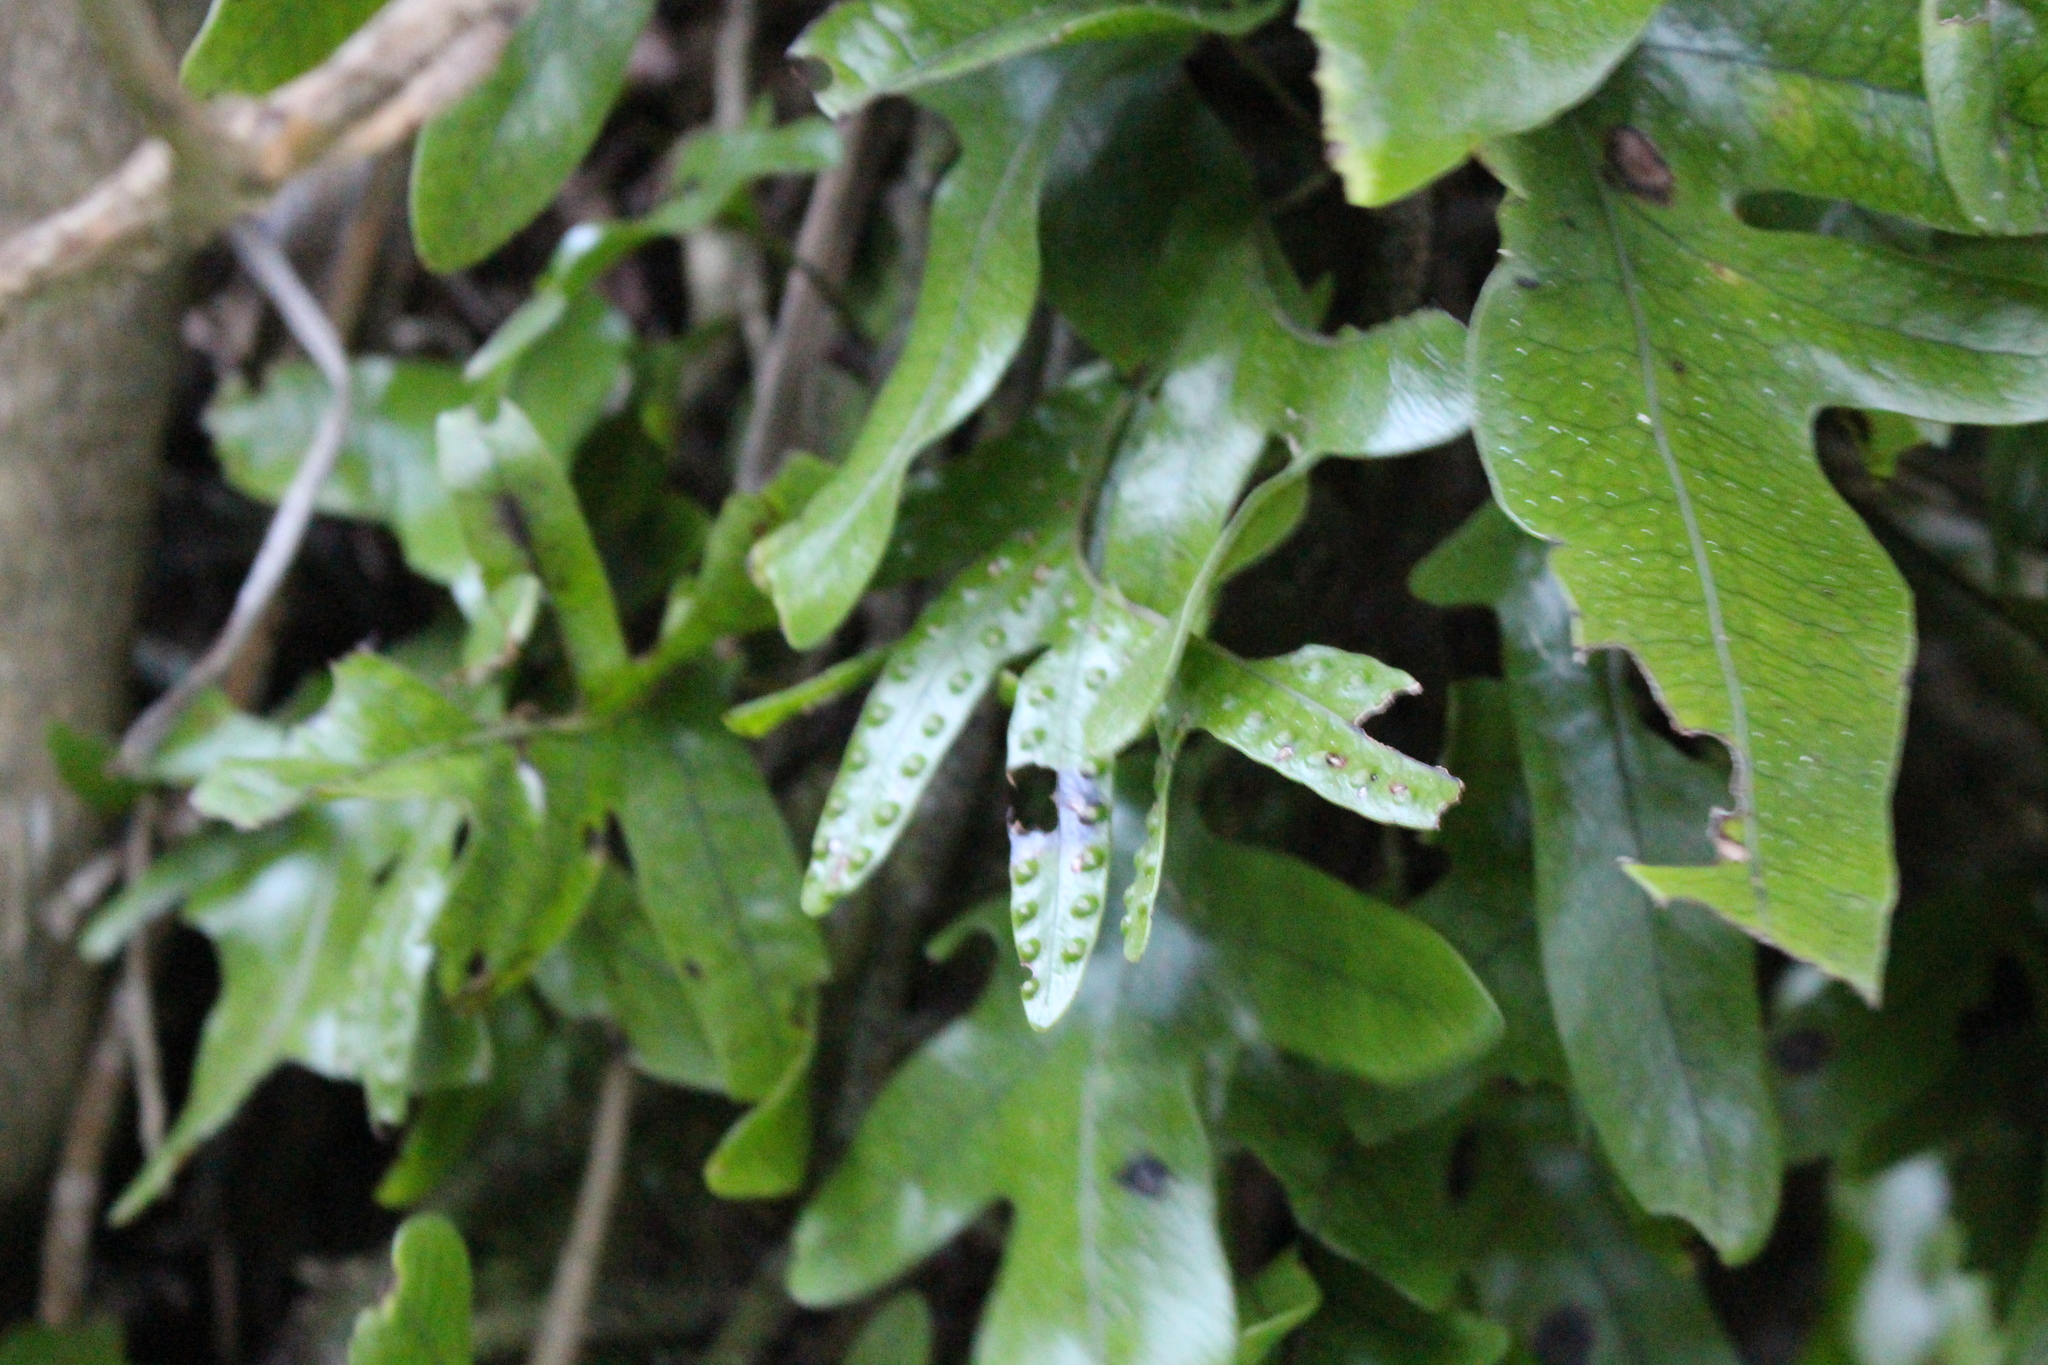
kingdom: Plantae
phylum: Tracheophyta
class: Polypodiopsida
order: Polypodiales
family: Polypodiaceae
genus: Lecanopteris
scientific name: Lecanopteris pustulata
